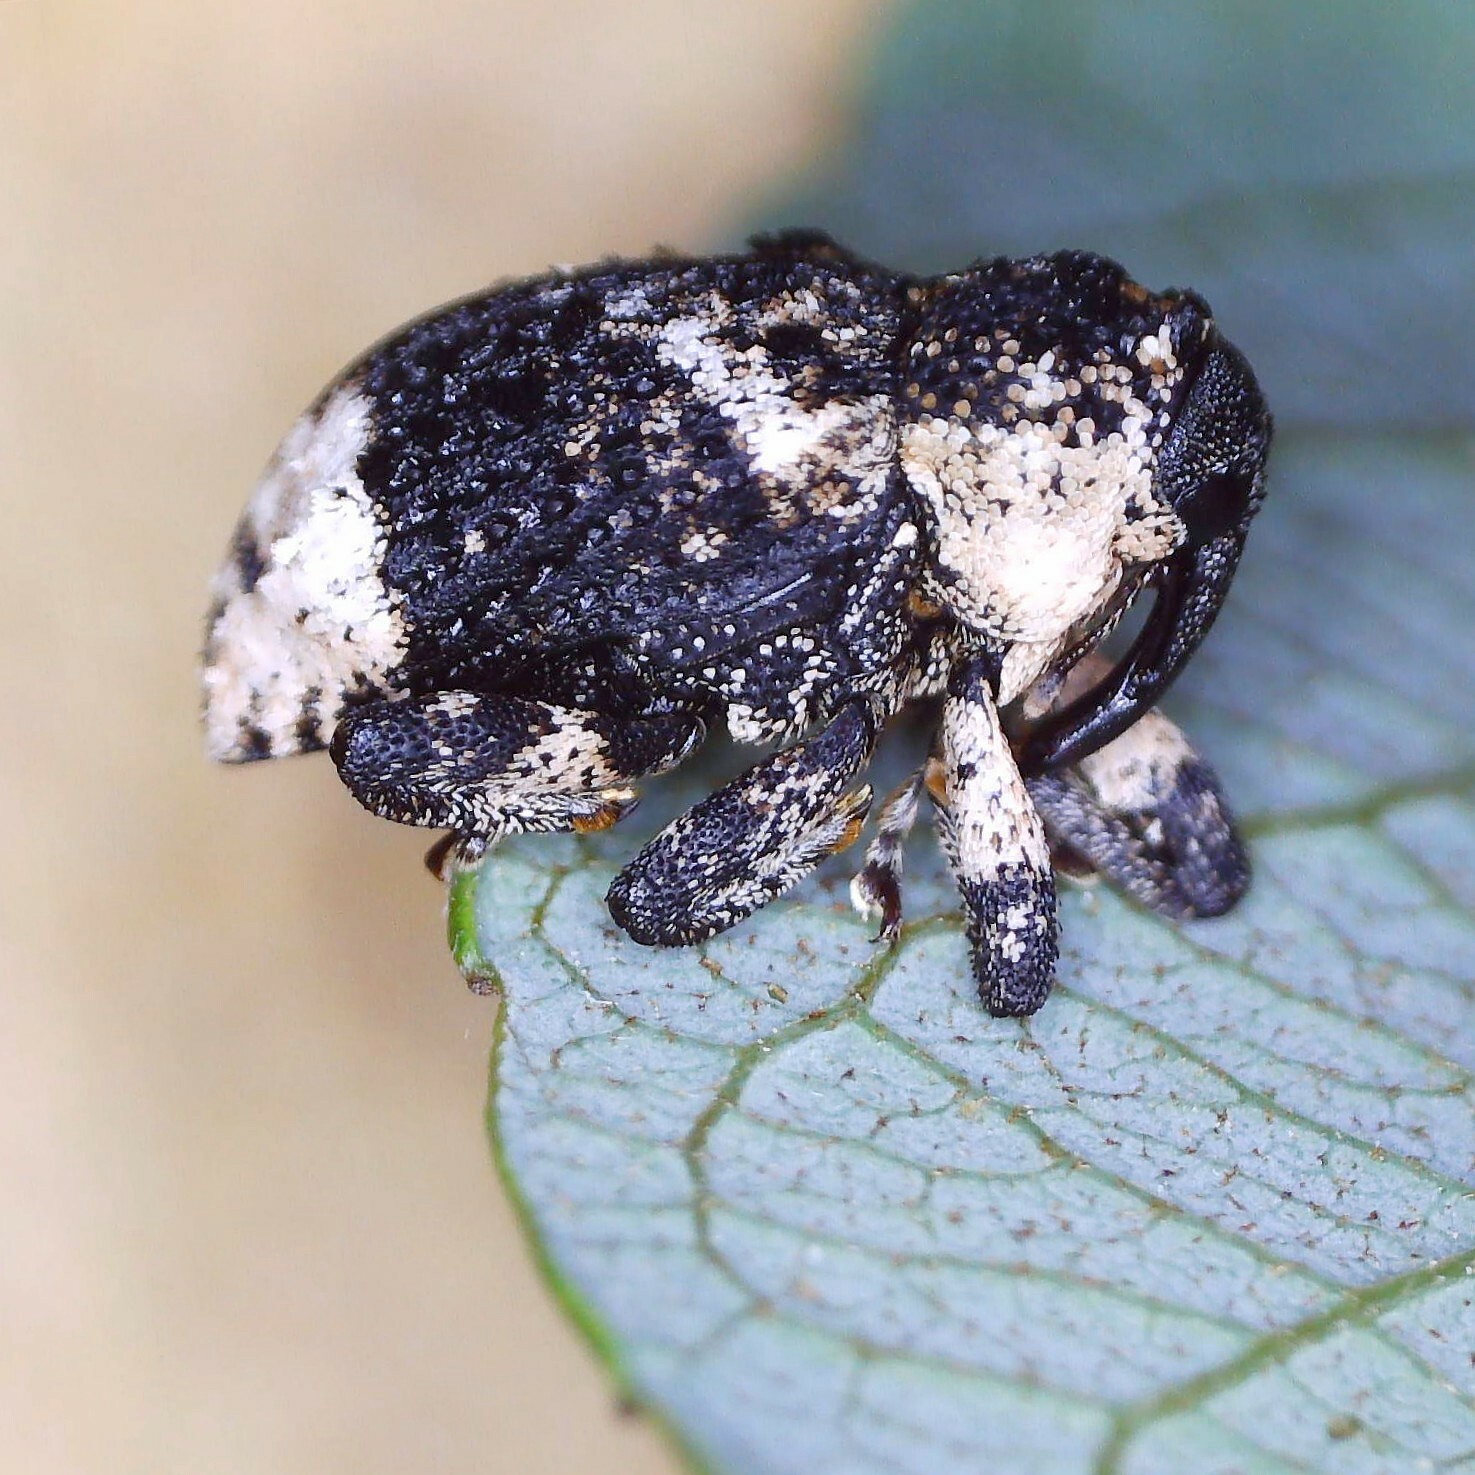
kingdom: Animalia
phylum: Arthropoda
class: Insecta
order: Coleoptera
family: Curculionidae
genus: Cryptorhynchus
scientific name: Cryptorhynchus lapathi
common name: Weevil
